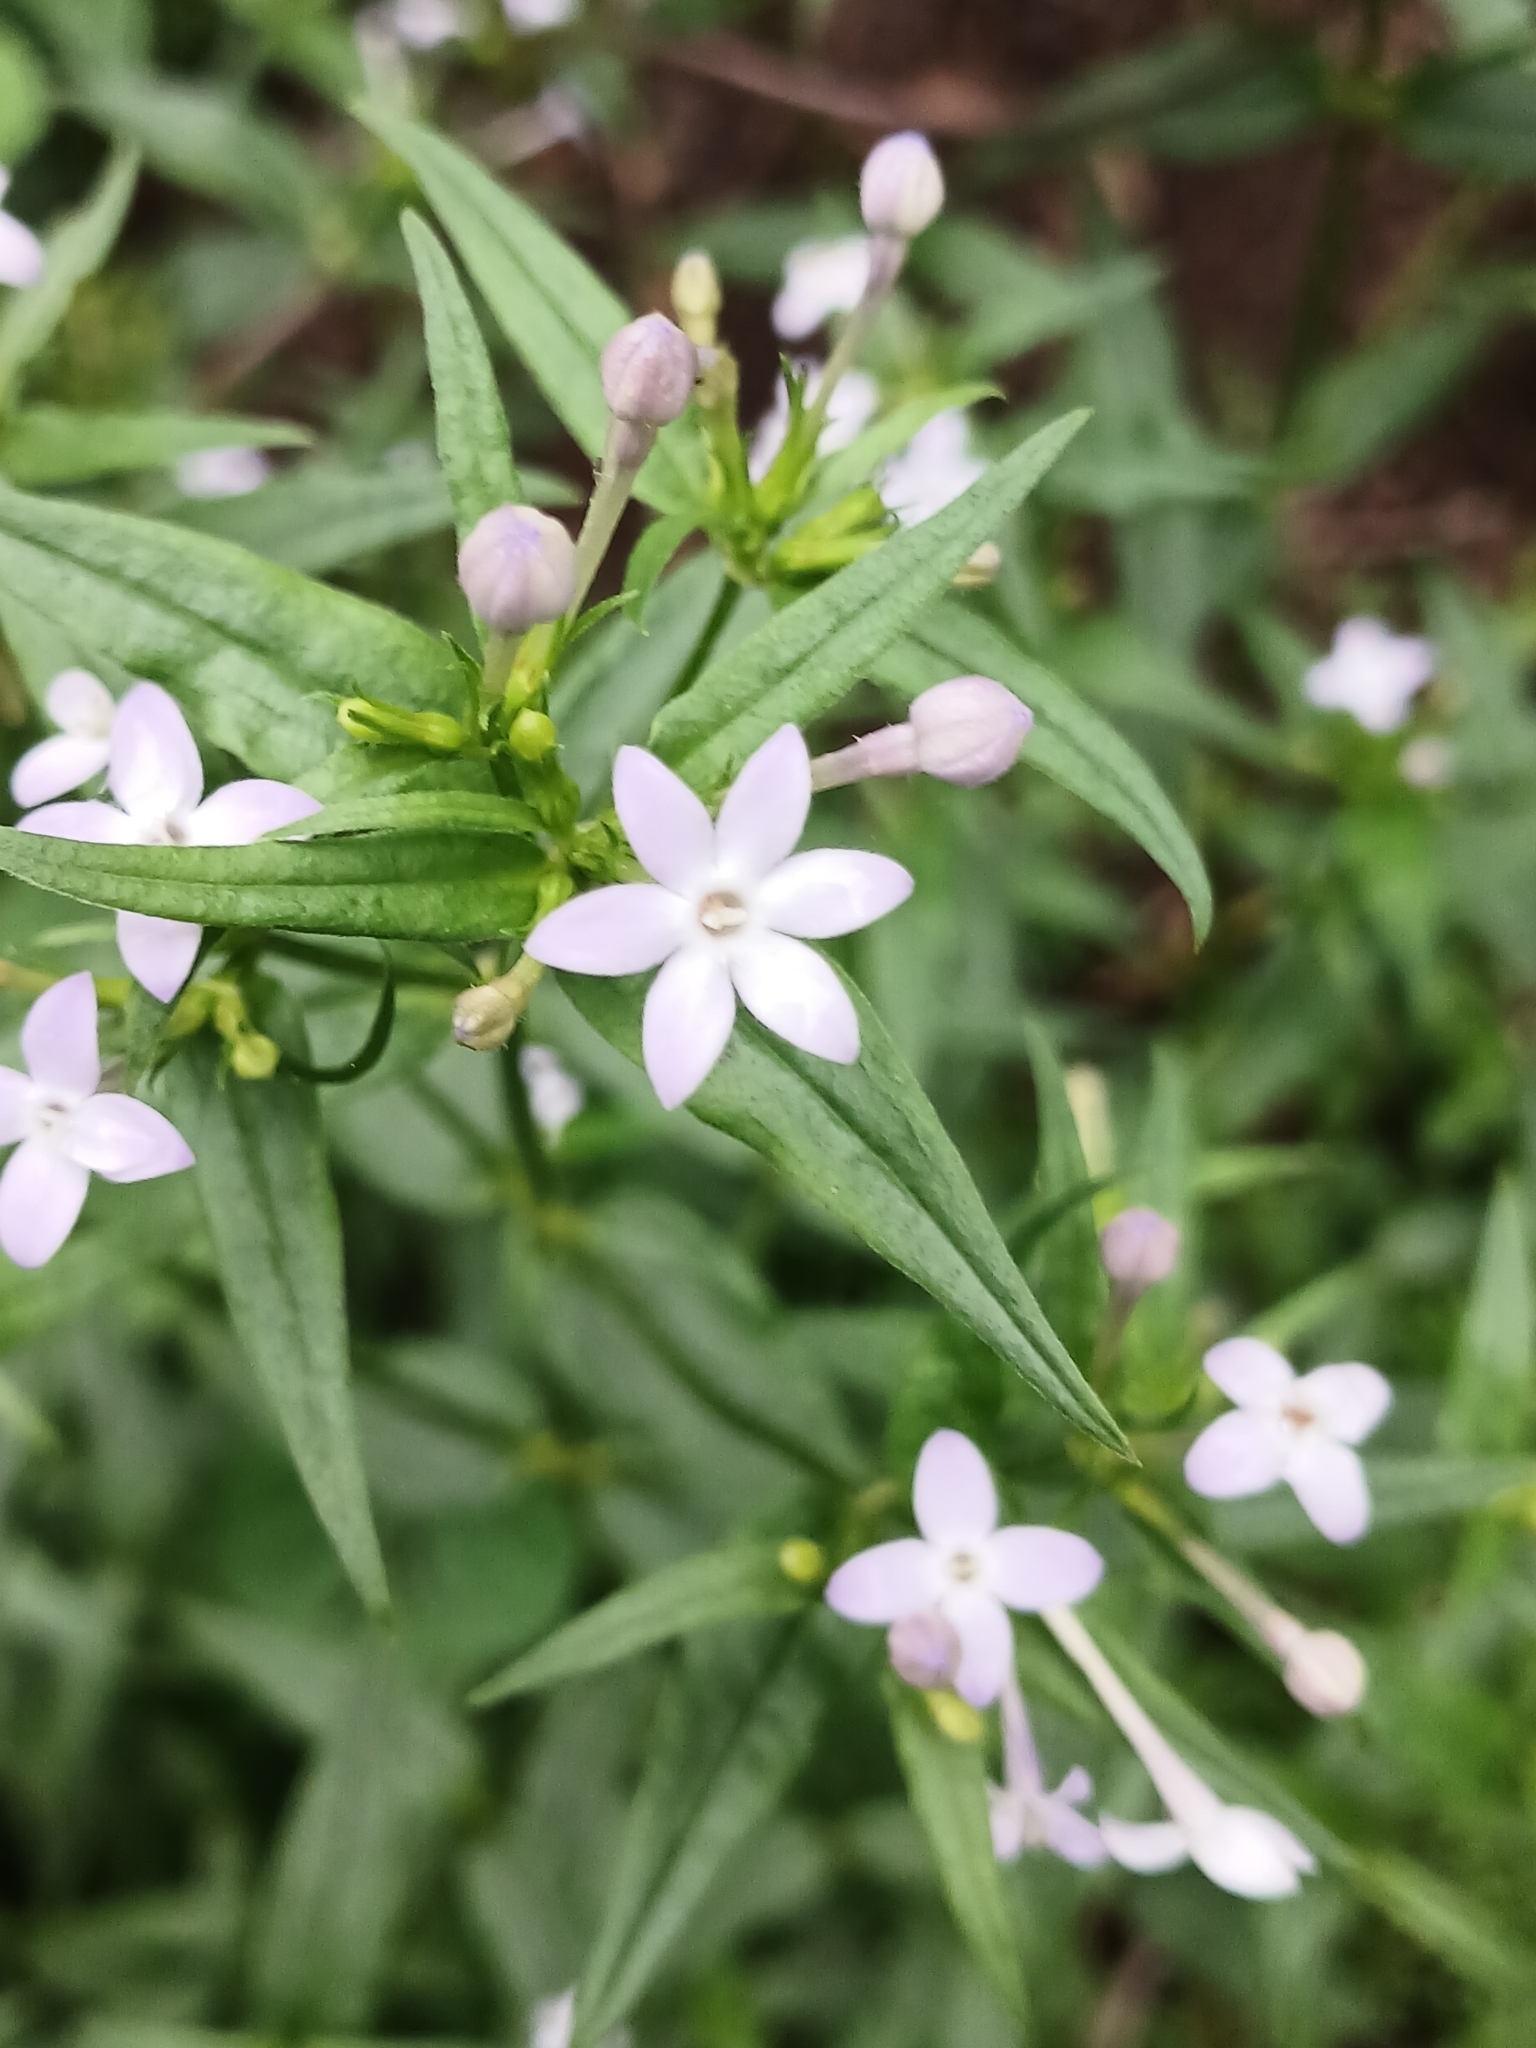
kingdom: Plantae
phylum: Tracheophyta
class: Magnoliopsida
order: Gentianales
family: Rubiaceae
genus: Conostomium
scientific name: Conostomium natalense
